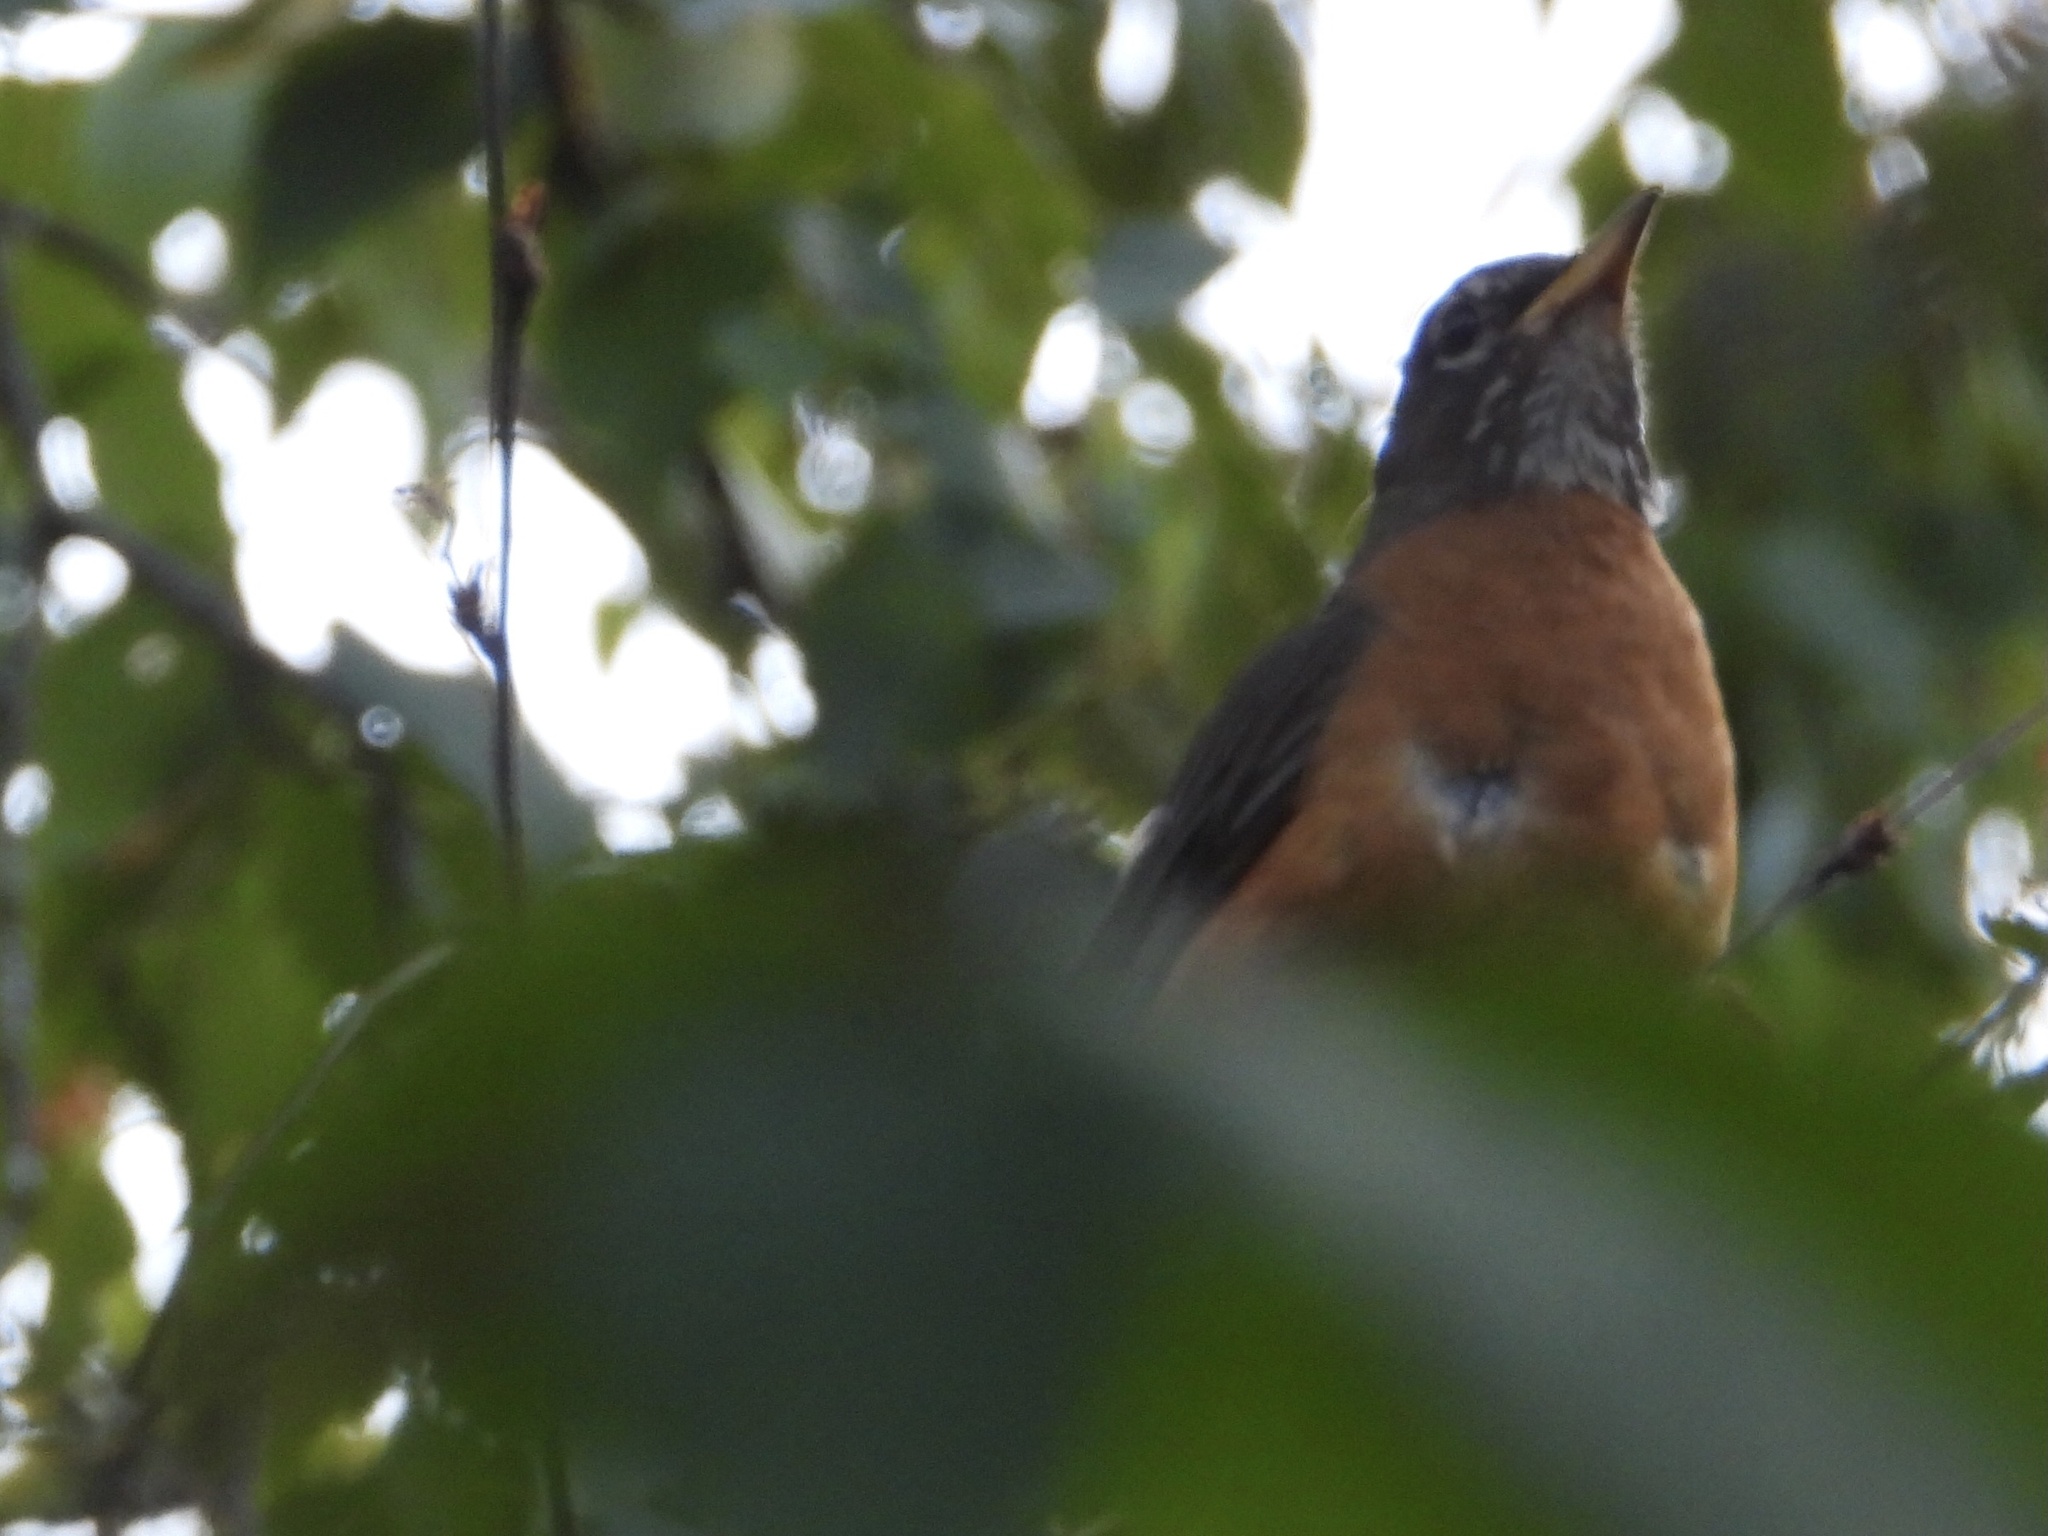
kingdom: Animalia
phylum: Chordata
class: Aves
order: Passeriformes
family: Turdidae
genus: Turdus
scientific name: Turdus migratorius
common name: American robin
